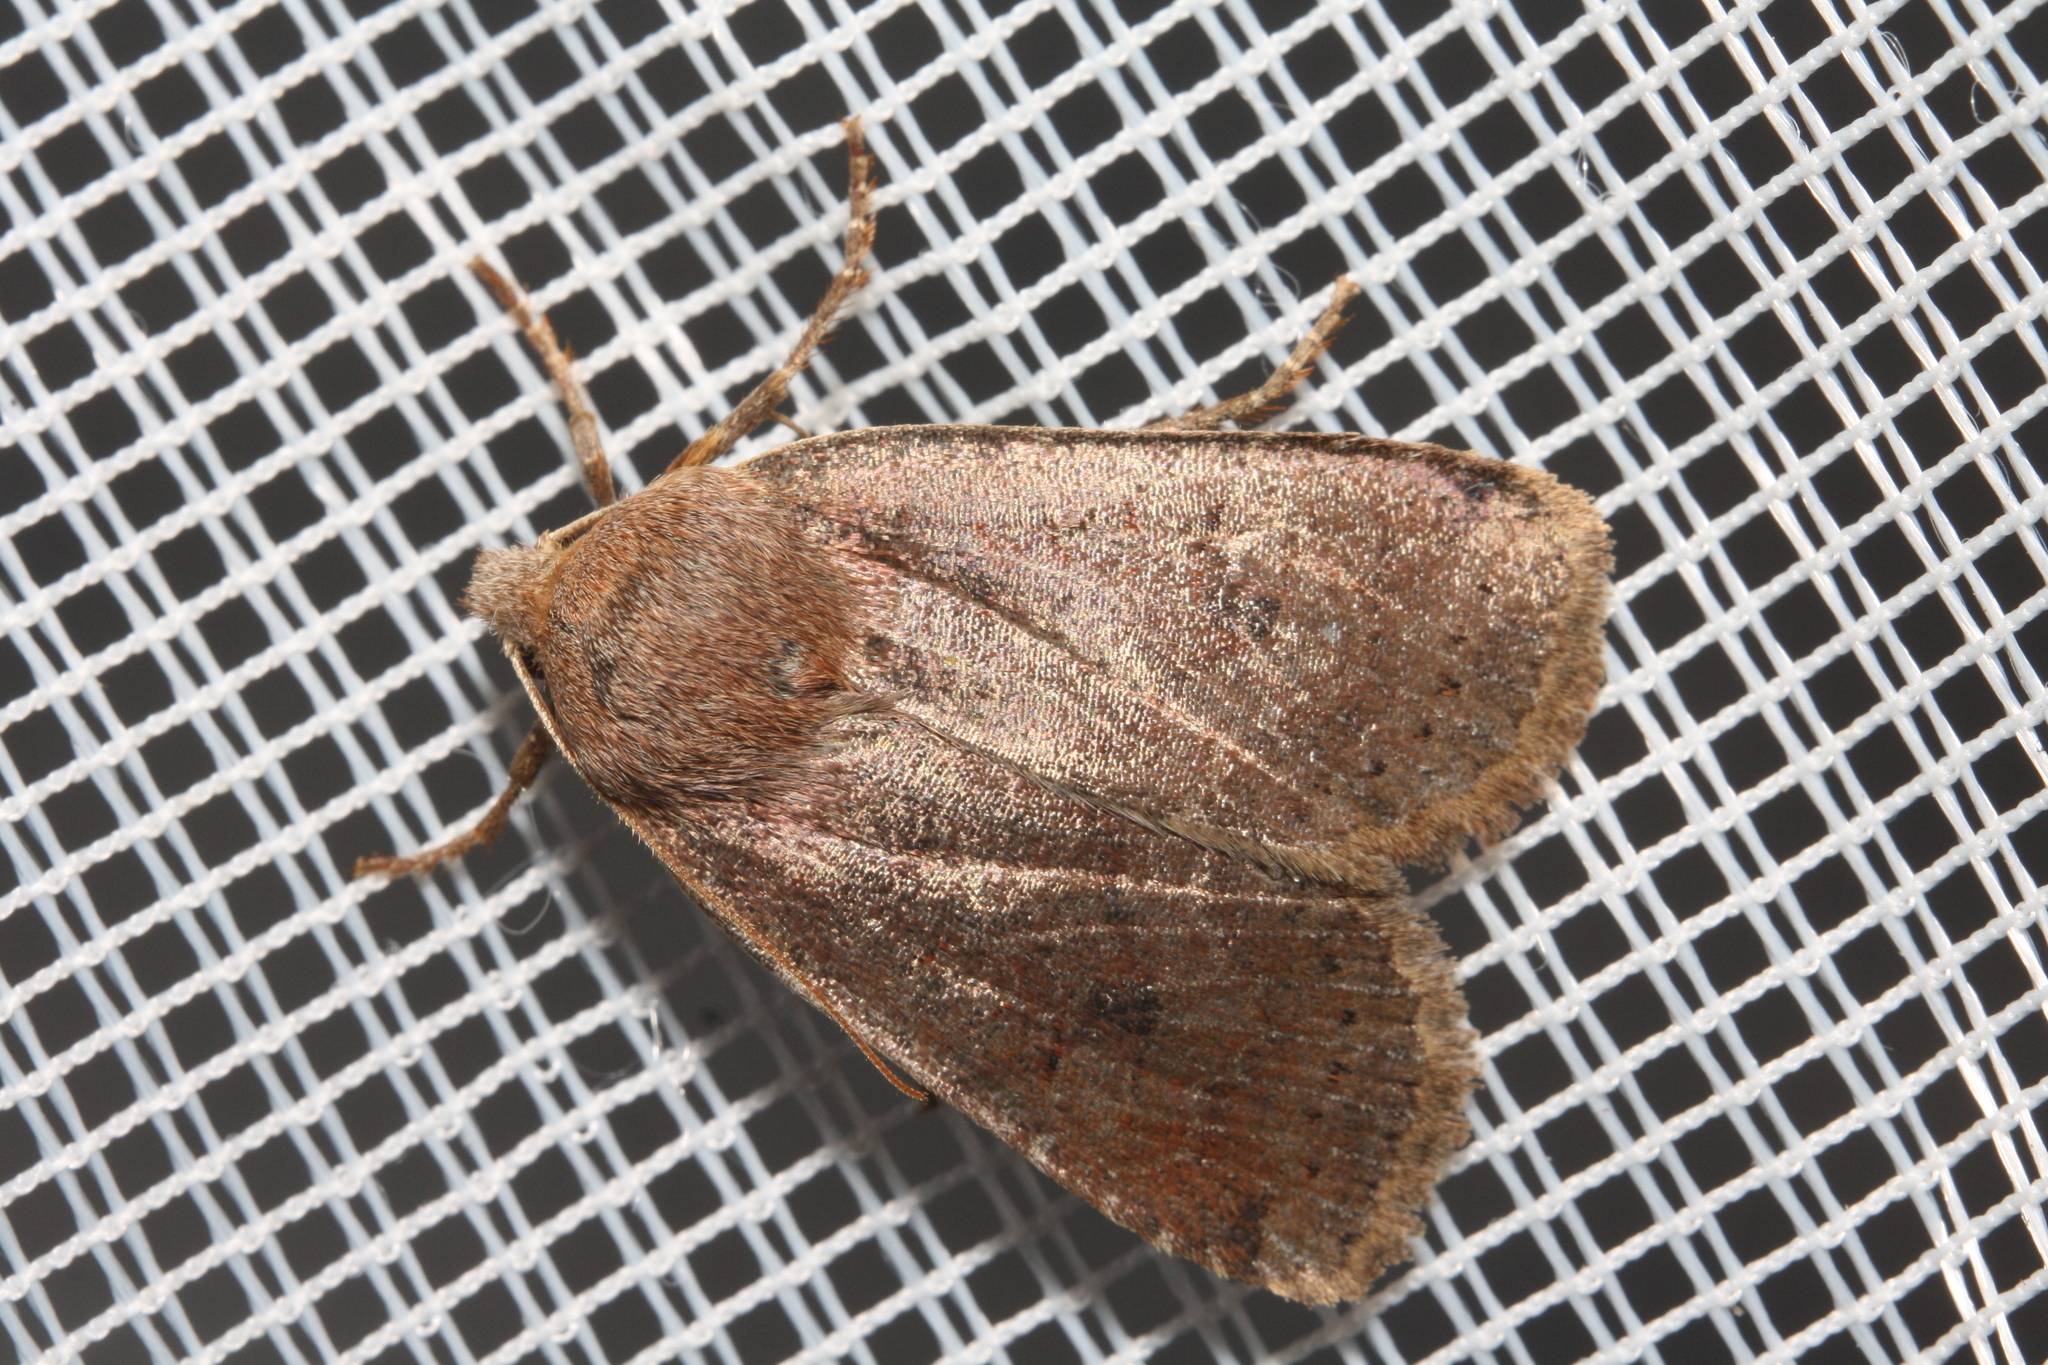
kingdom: Animalia
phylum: Arthropoda
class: Insecta
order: Lepidoptera
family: Noctuidae
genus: Conistra
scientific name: Conistra vaccinii
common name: Chestnut
